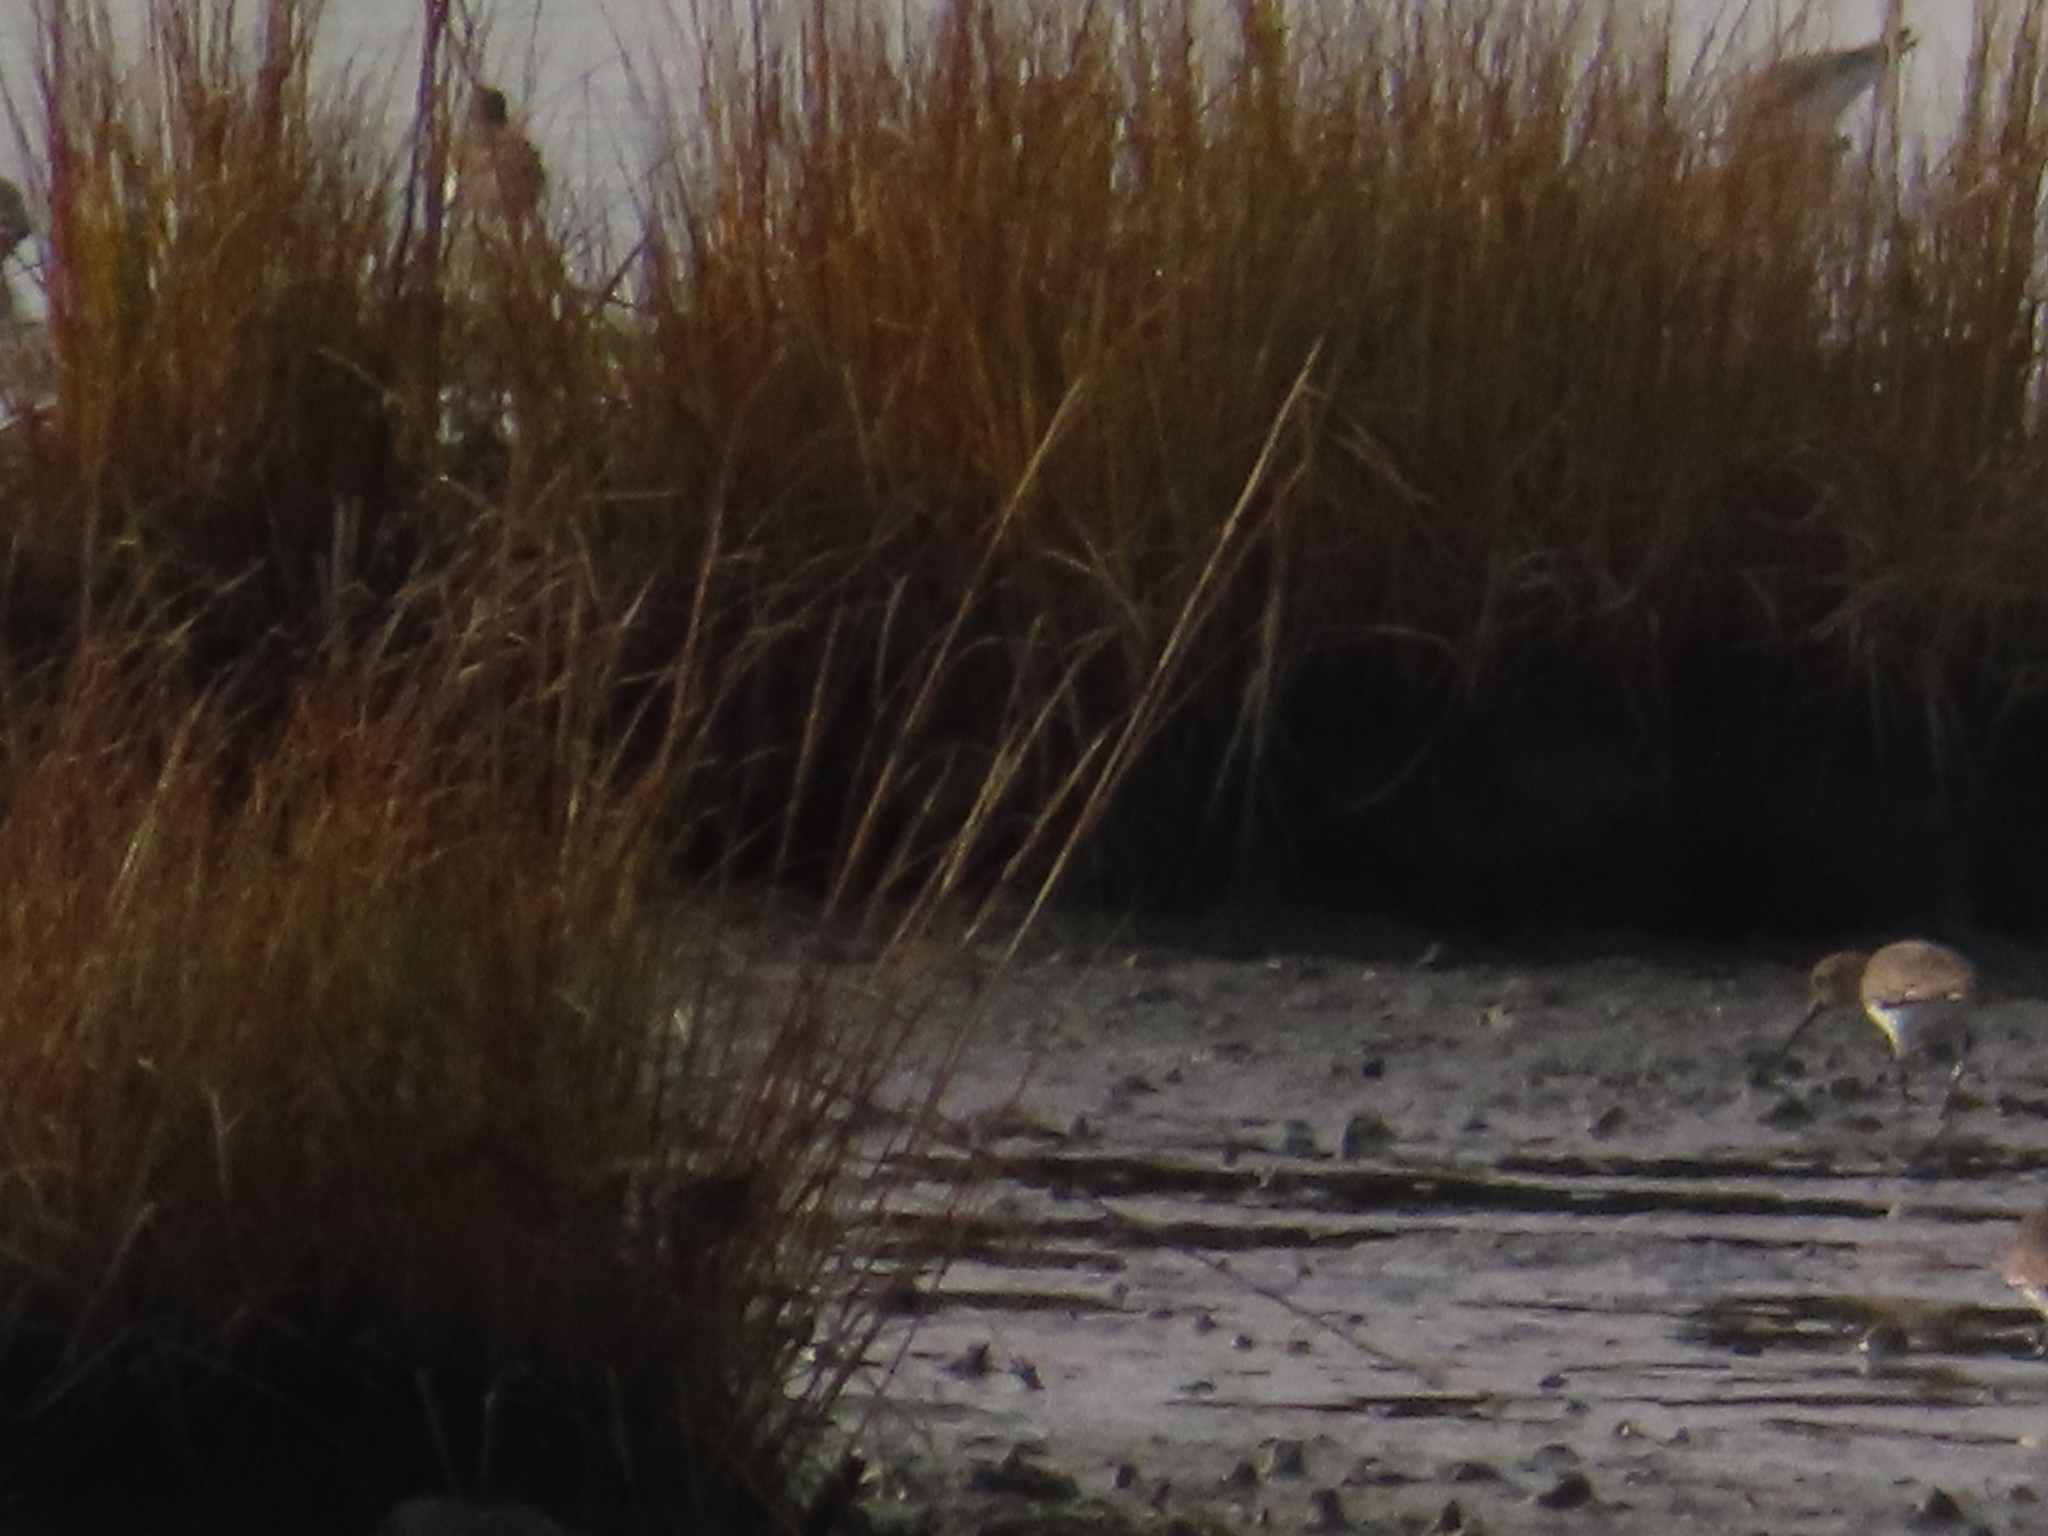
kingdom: Animalia
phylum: Chordata
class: Aves
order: Charadriiformes
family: Scolopacidae
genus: Calidris
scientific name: Calidris alpina
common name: Dunlin
